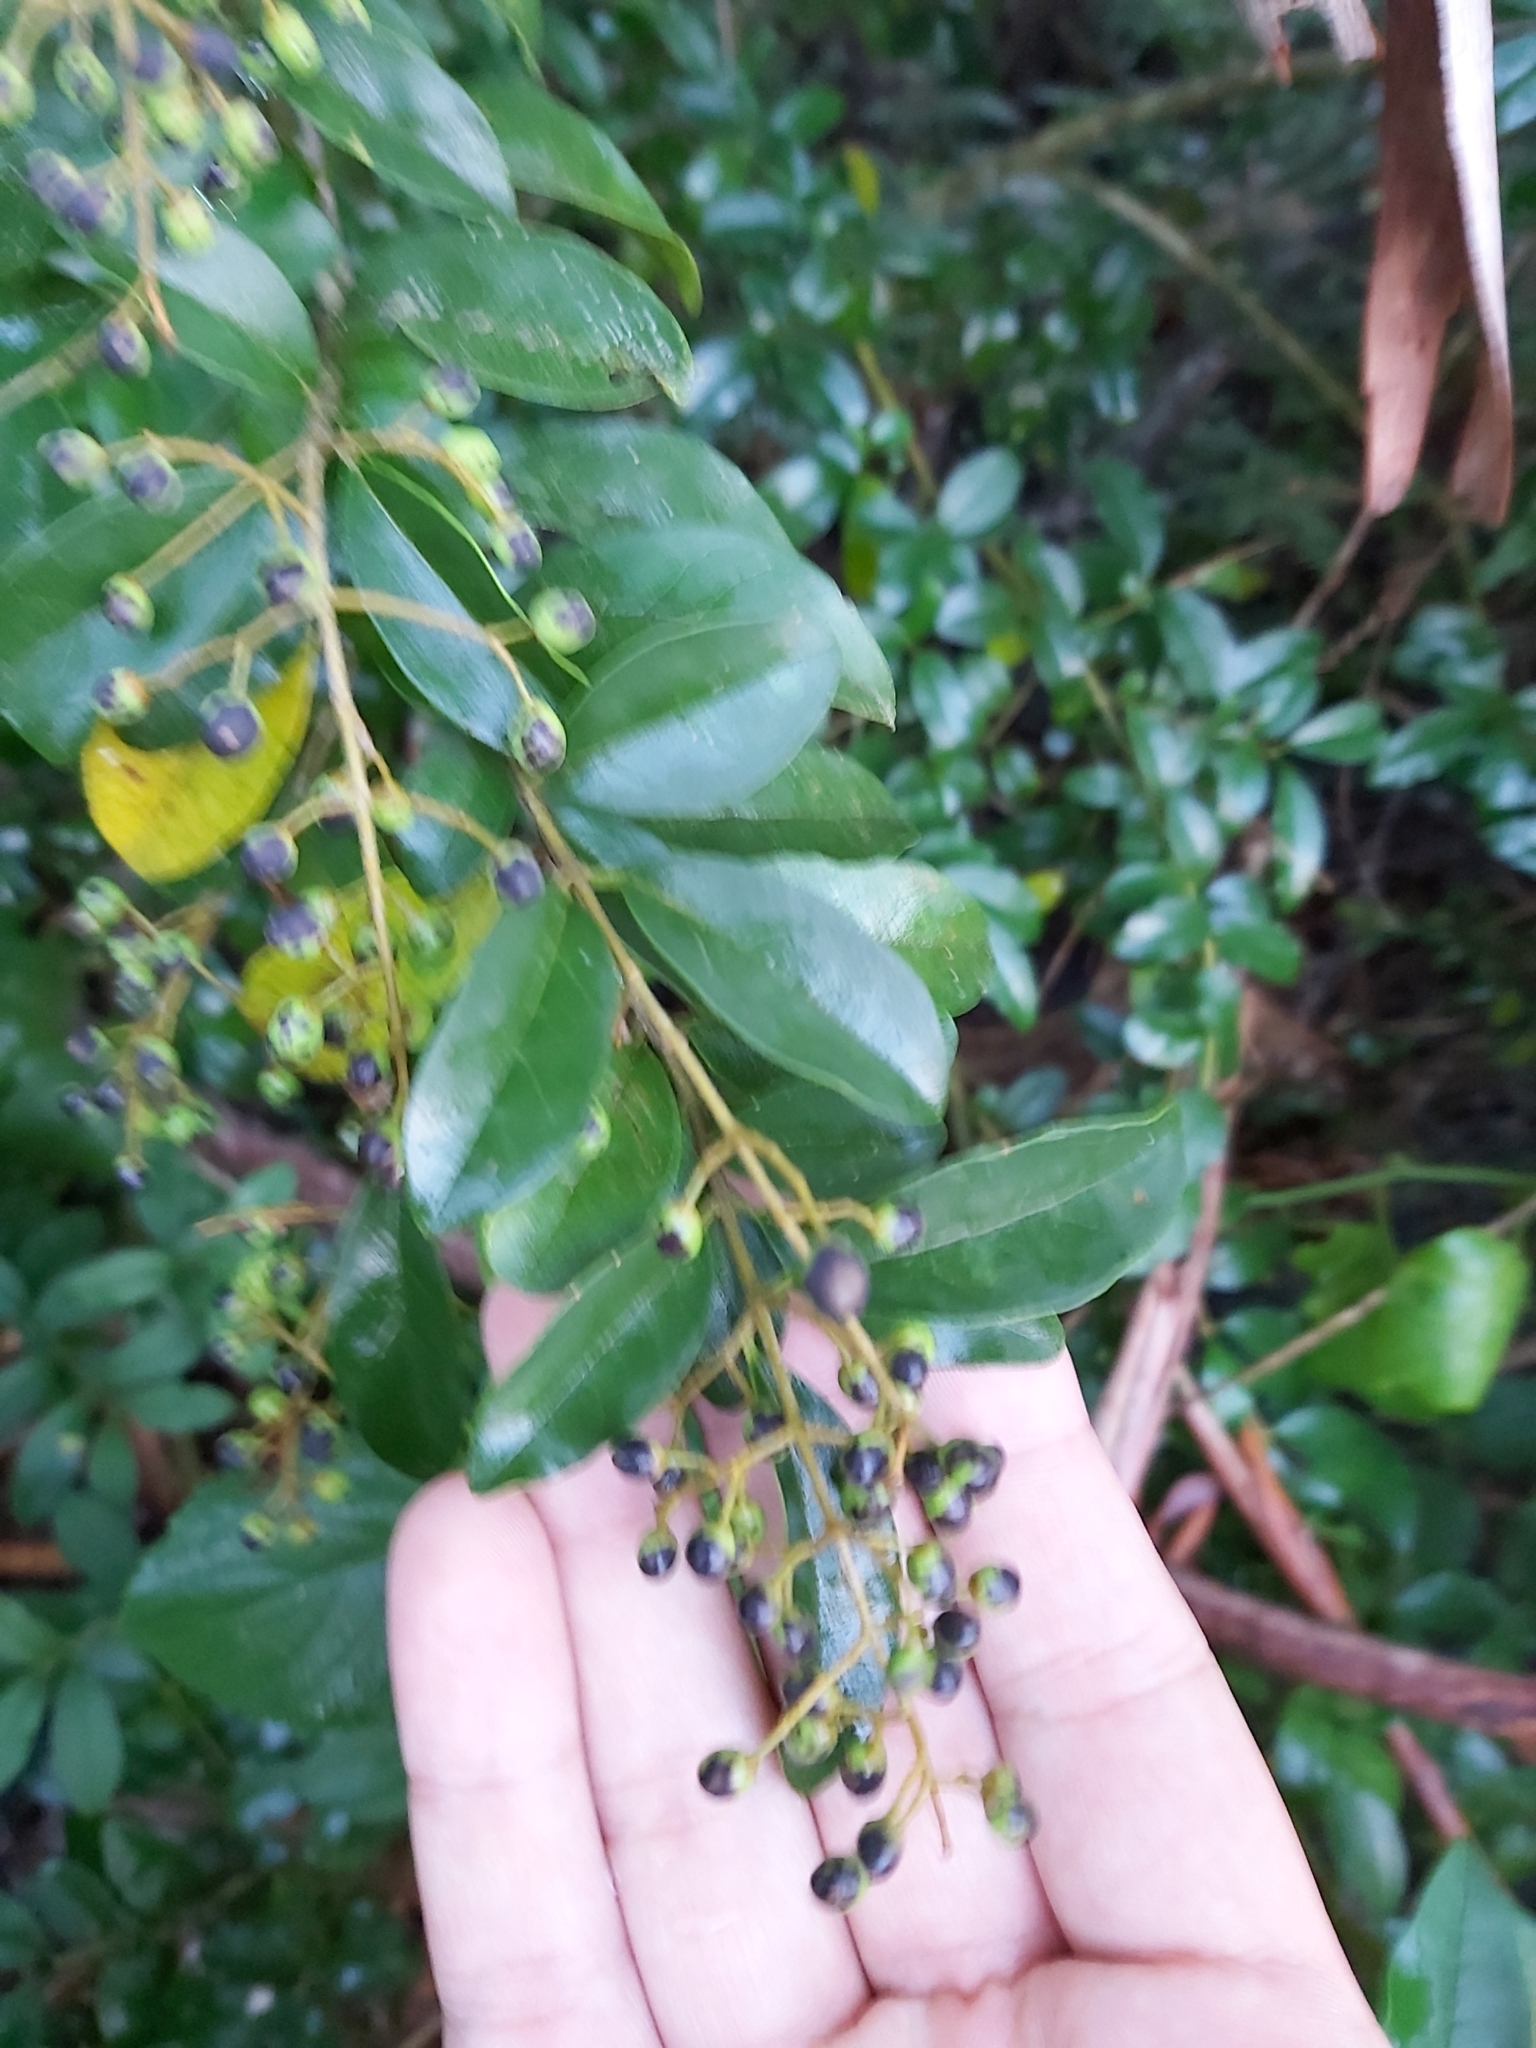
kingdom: Plantae
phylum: Tracheophyta
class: Magnoliopsida
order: Lamiales
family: Oleaceae
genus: Ligustrum
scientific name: Ligustrum sinense
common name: Chinese privet
